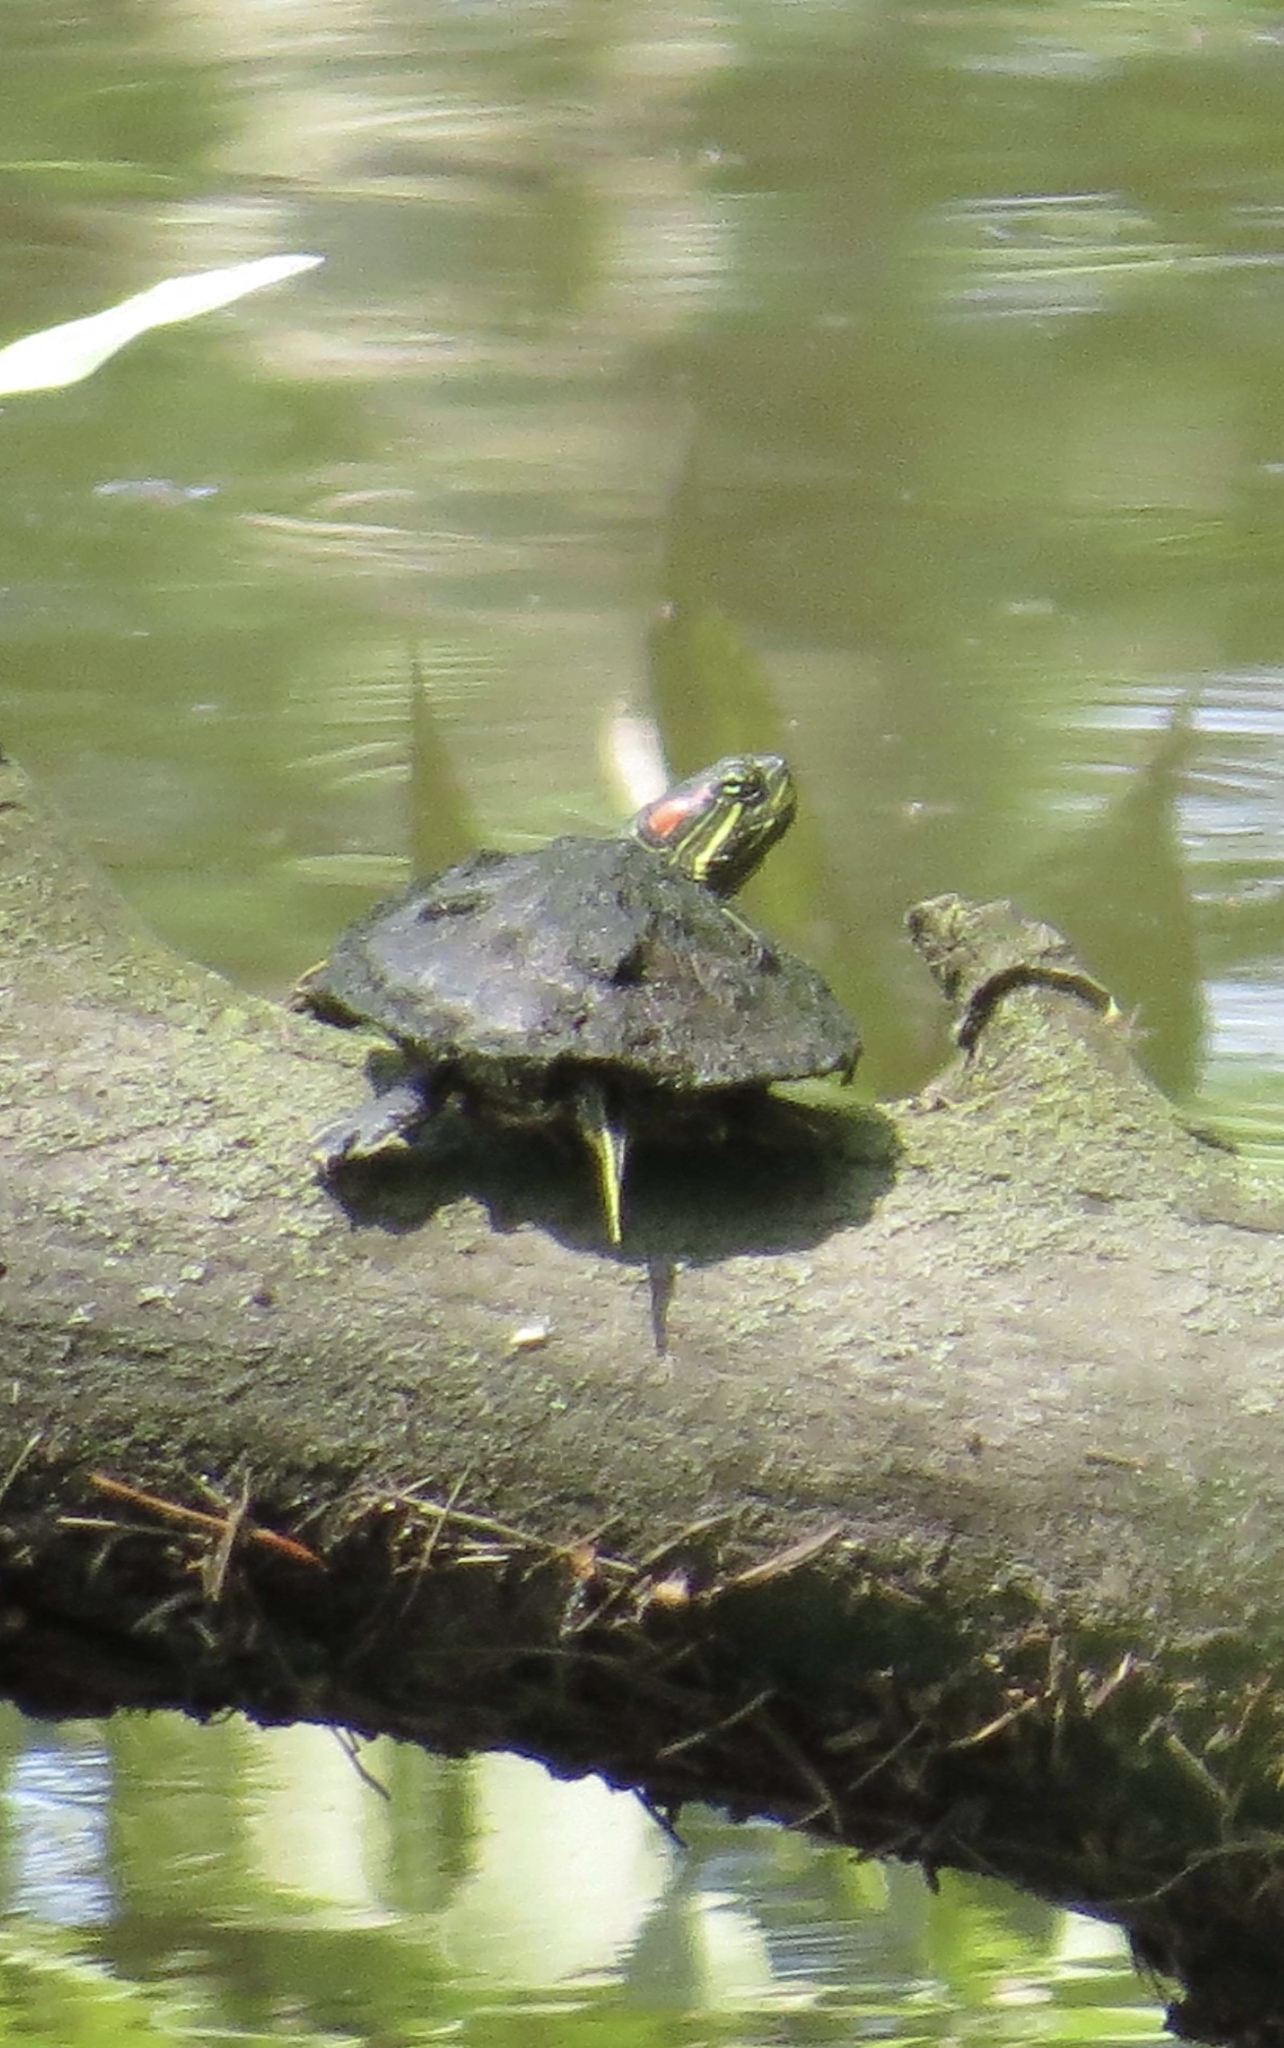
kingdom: Animalia
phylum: Chordata
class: Testudines
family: Emydidae
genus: Trachemys
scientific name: Trachemys scripta
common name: Slider
